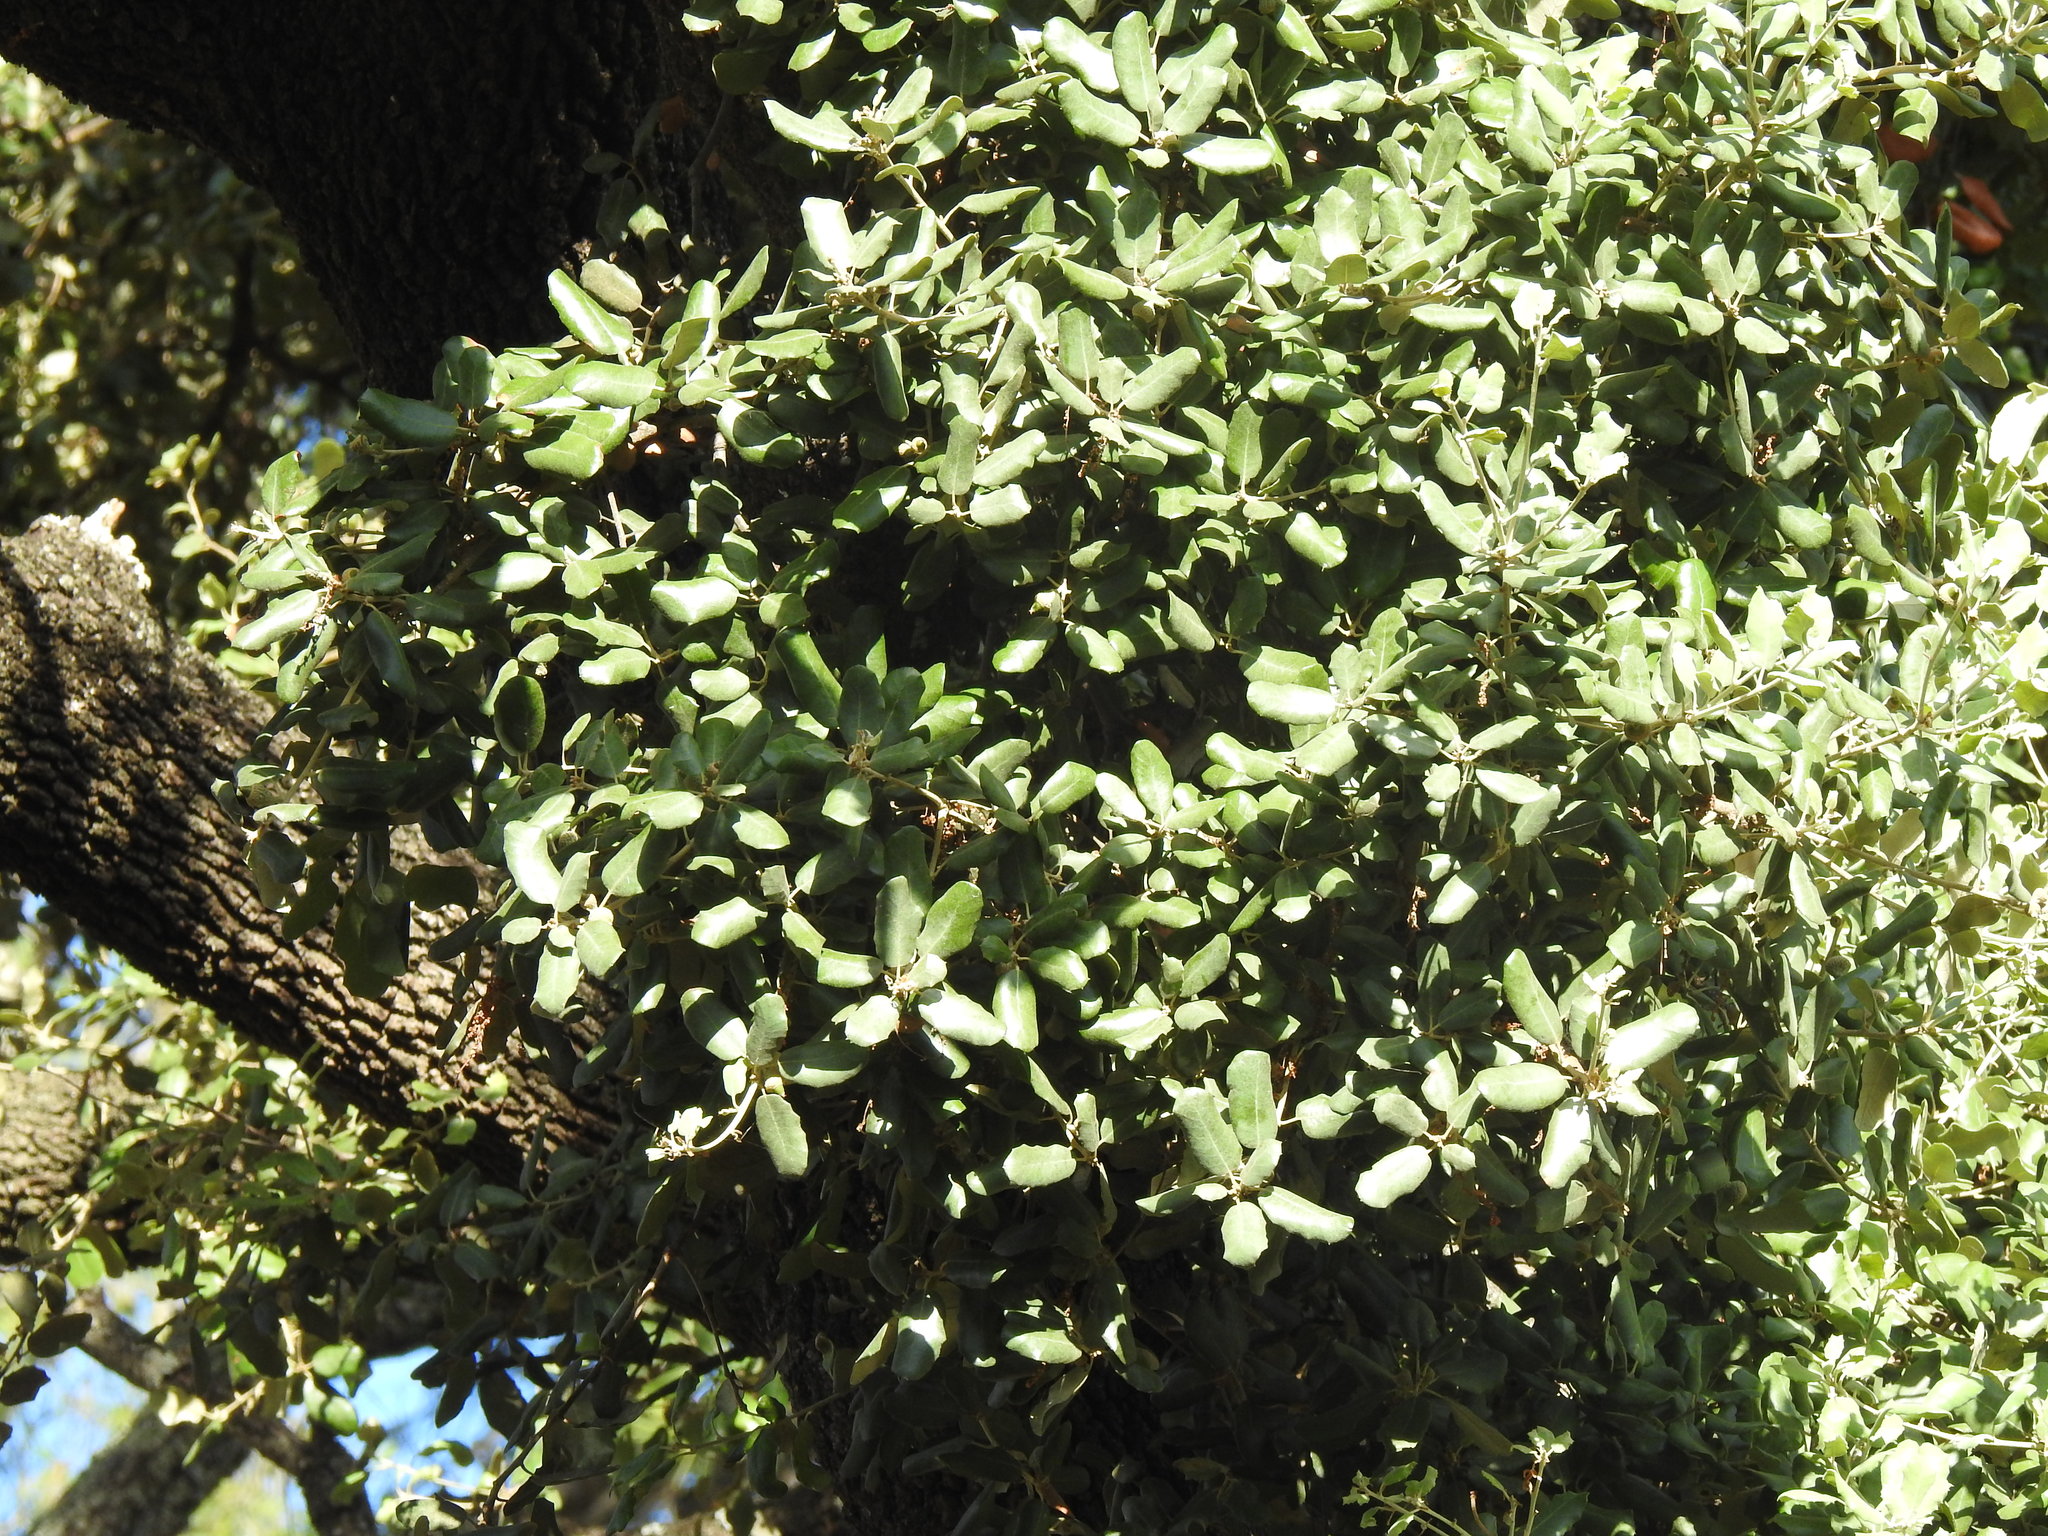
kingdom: Plantae
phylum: Tracheophyta
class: Magnoliopsida
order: Fagales
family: Fagaceae
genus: Quercus
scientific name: Quercus rotundifolia
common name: Holm oak
